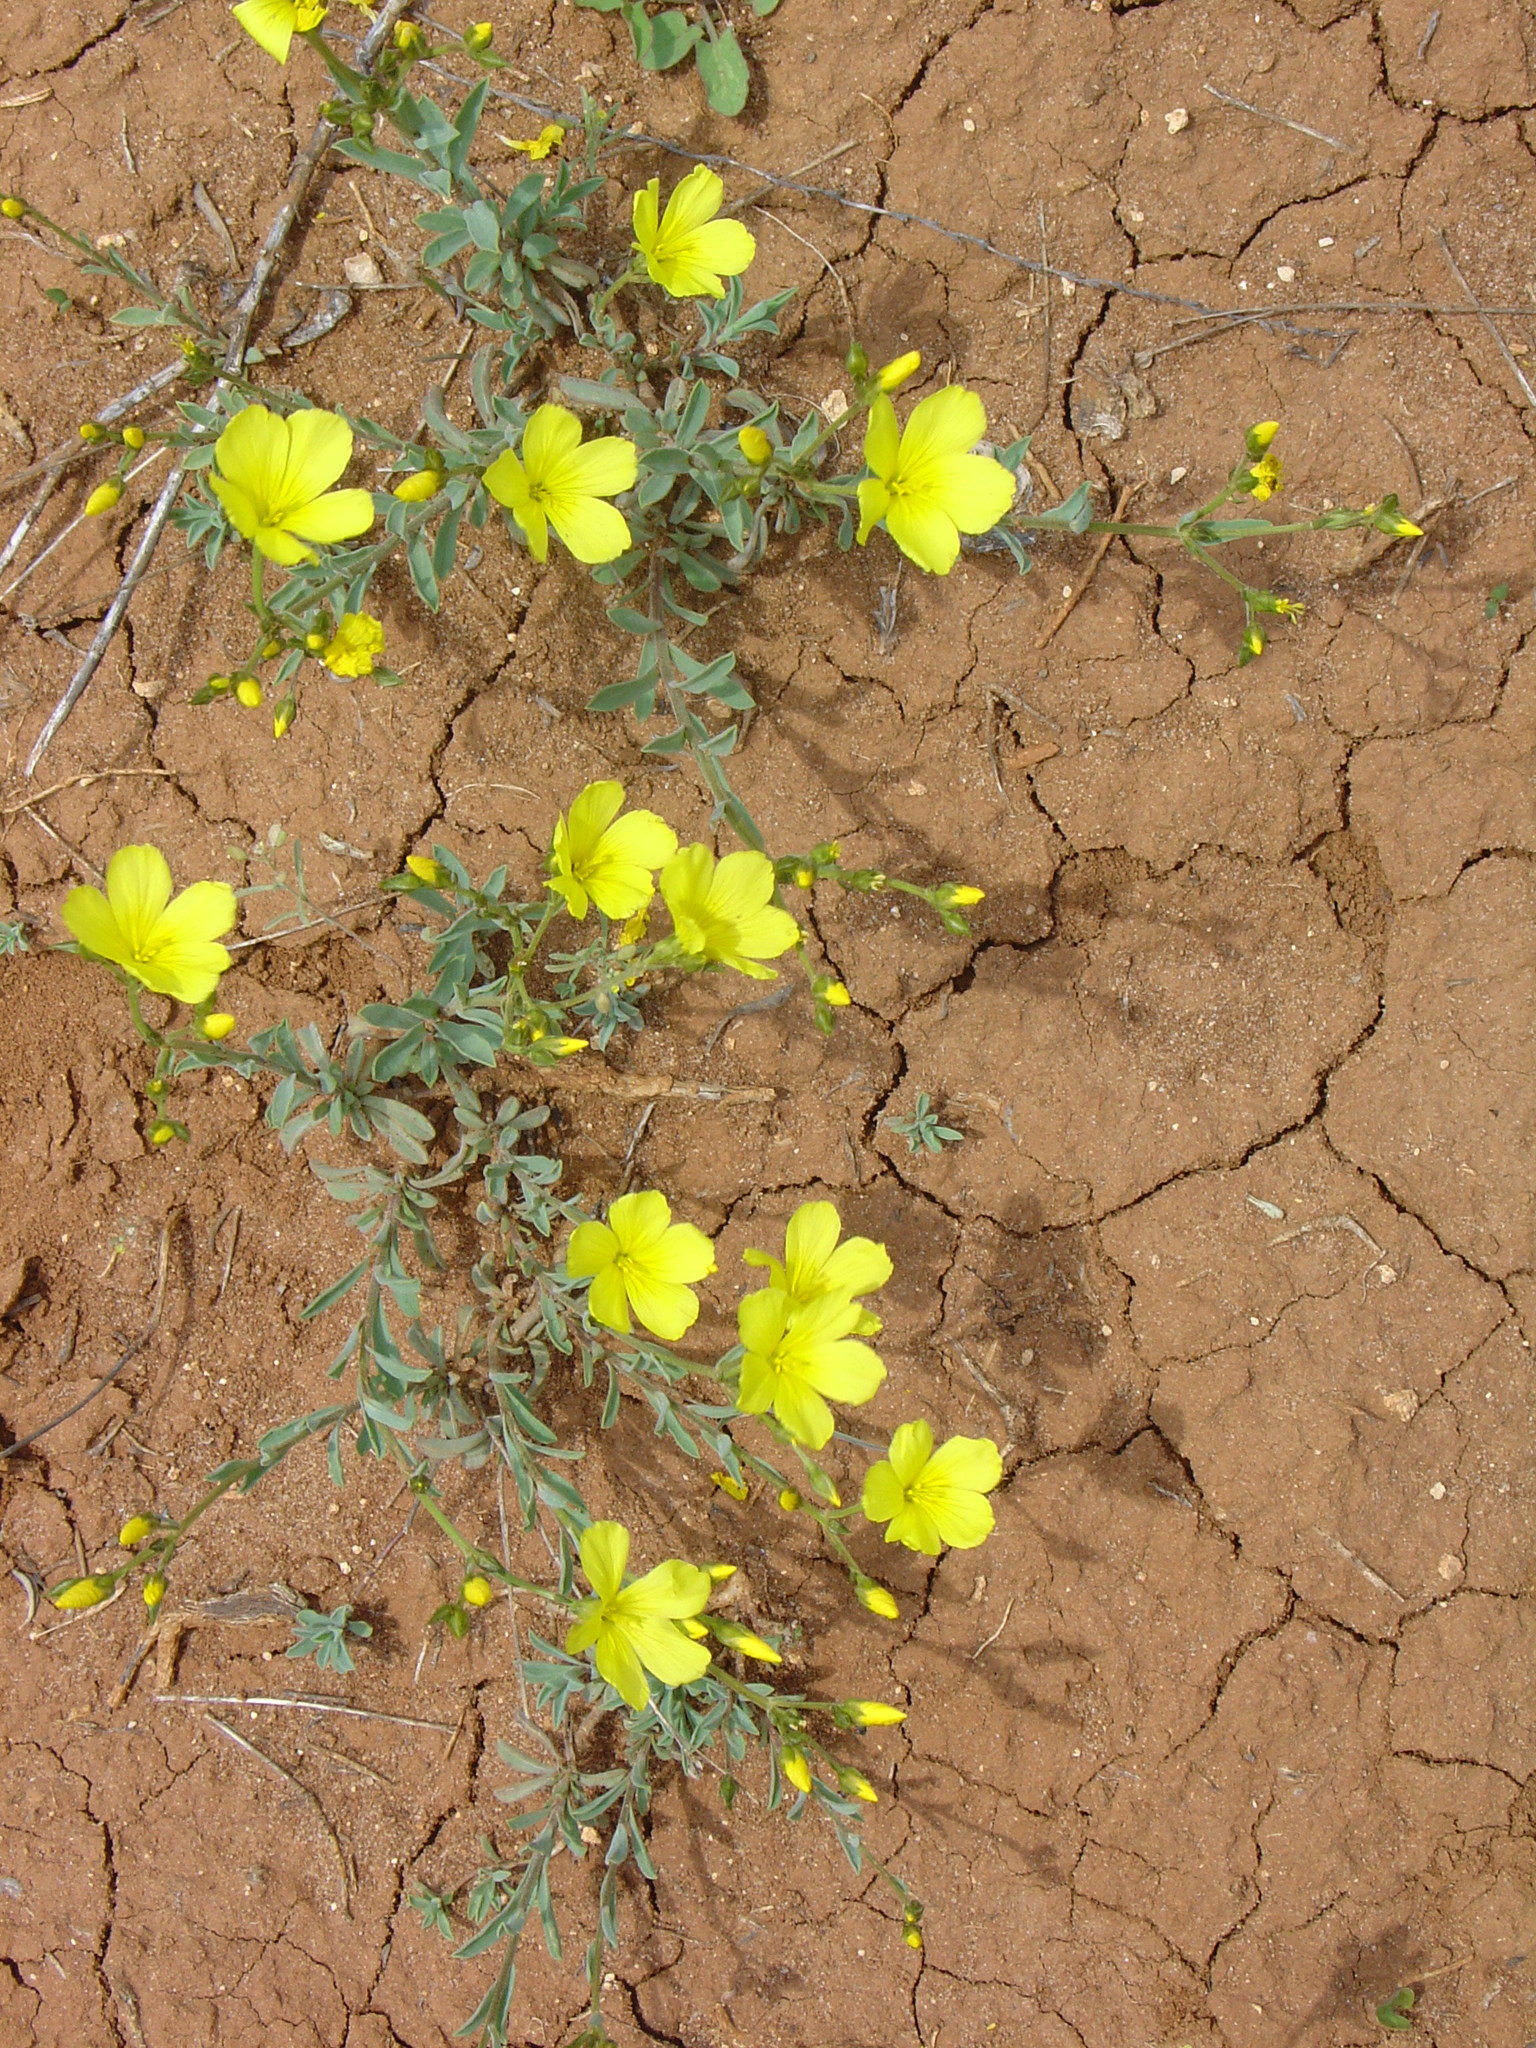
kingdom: Plantae
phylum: Tracheophyta
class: Magnoliopsida
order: Malpighiales
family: Linaceae
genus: Linum
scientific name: Linum pallasianum
